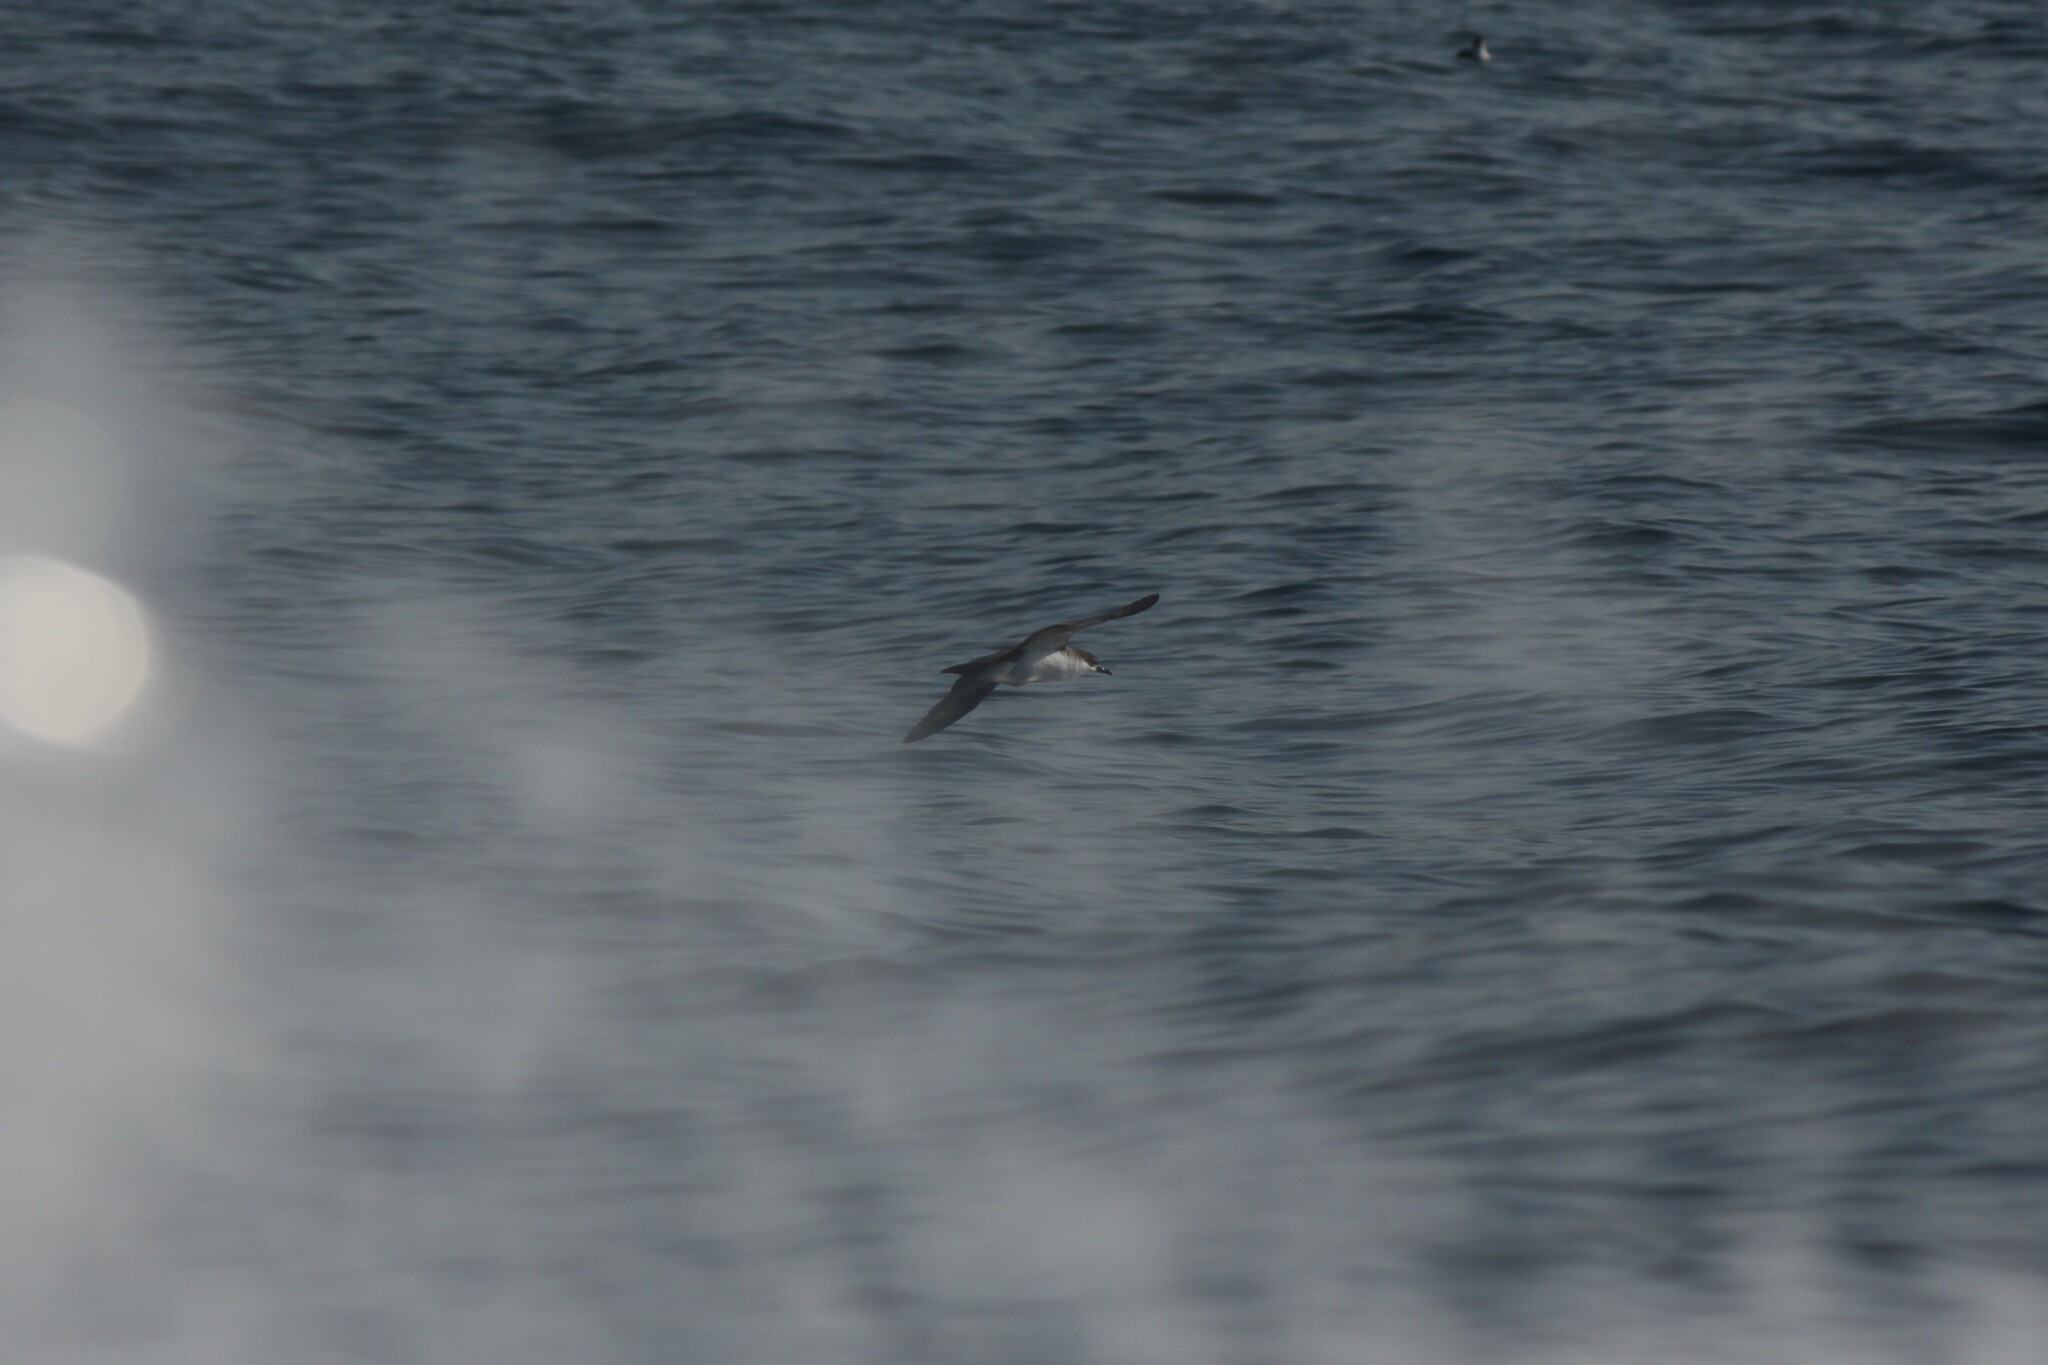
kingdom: Animalia
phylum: Chordata
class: Aves
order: Procellariiformes
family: Procellariidae
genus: Puffinus
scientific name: Puffinus subalaris
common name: Galapagos shearwater
